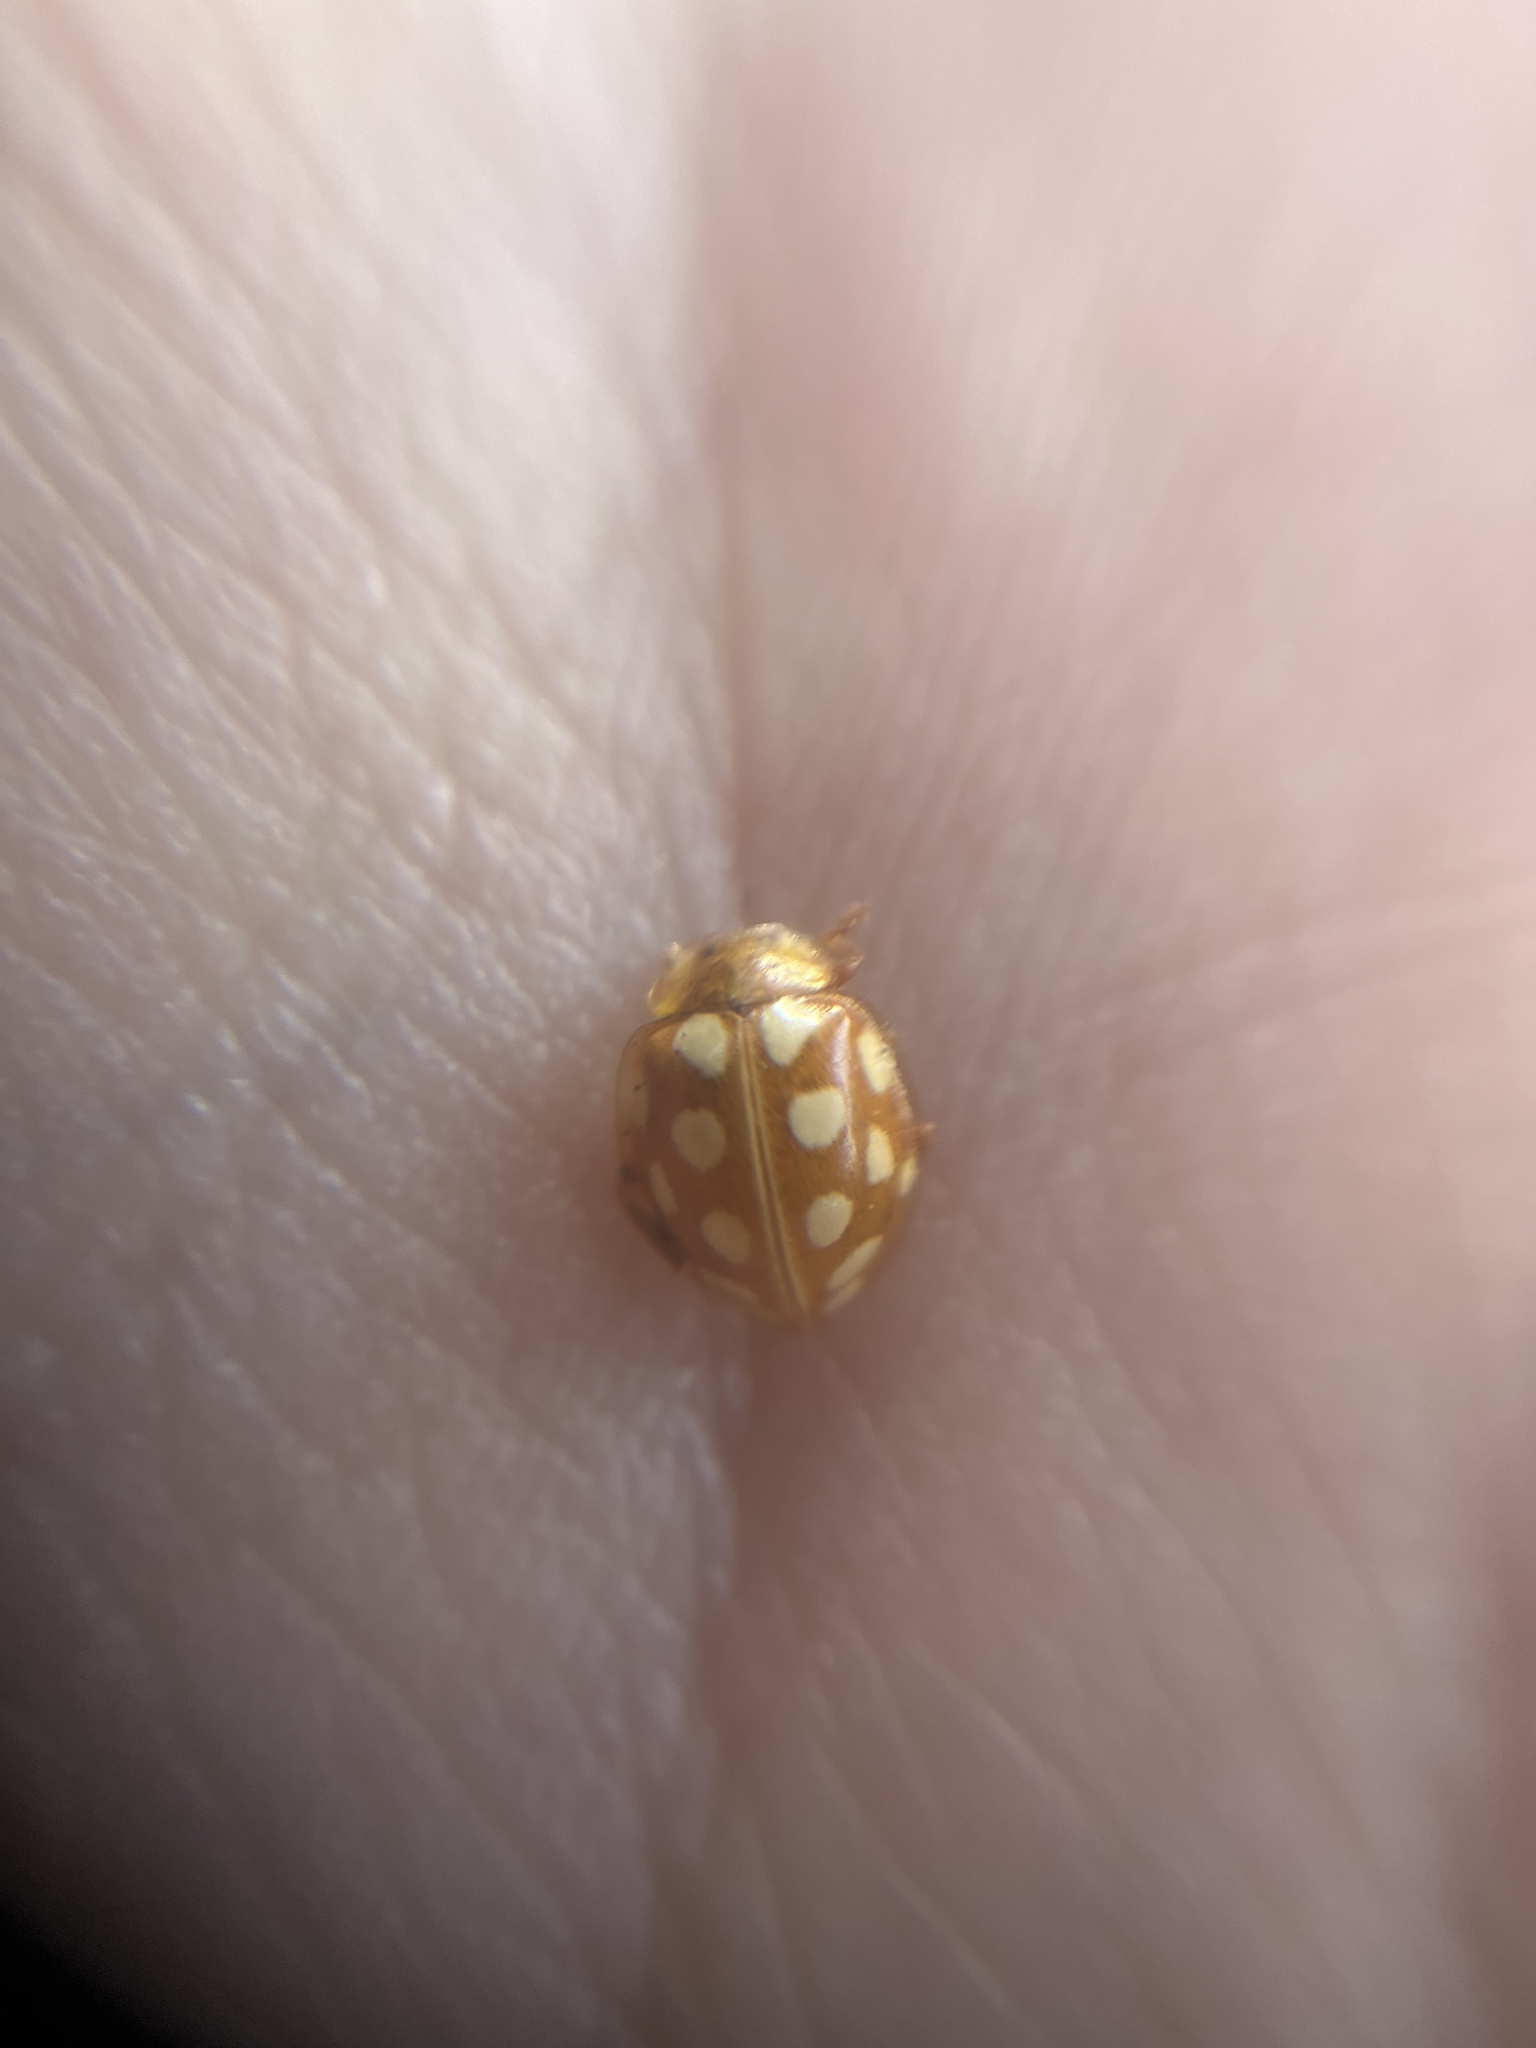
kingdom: Animalia
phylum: Arthropoda
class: Insecta
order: Coleoptera
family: Coccinellidae
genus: Halyzia
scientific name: Halyzia sedecimguttata
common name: Orange ladybird
